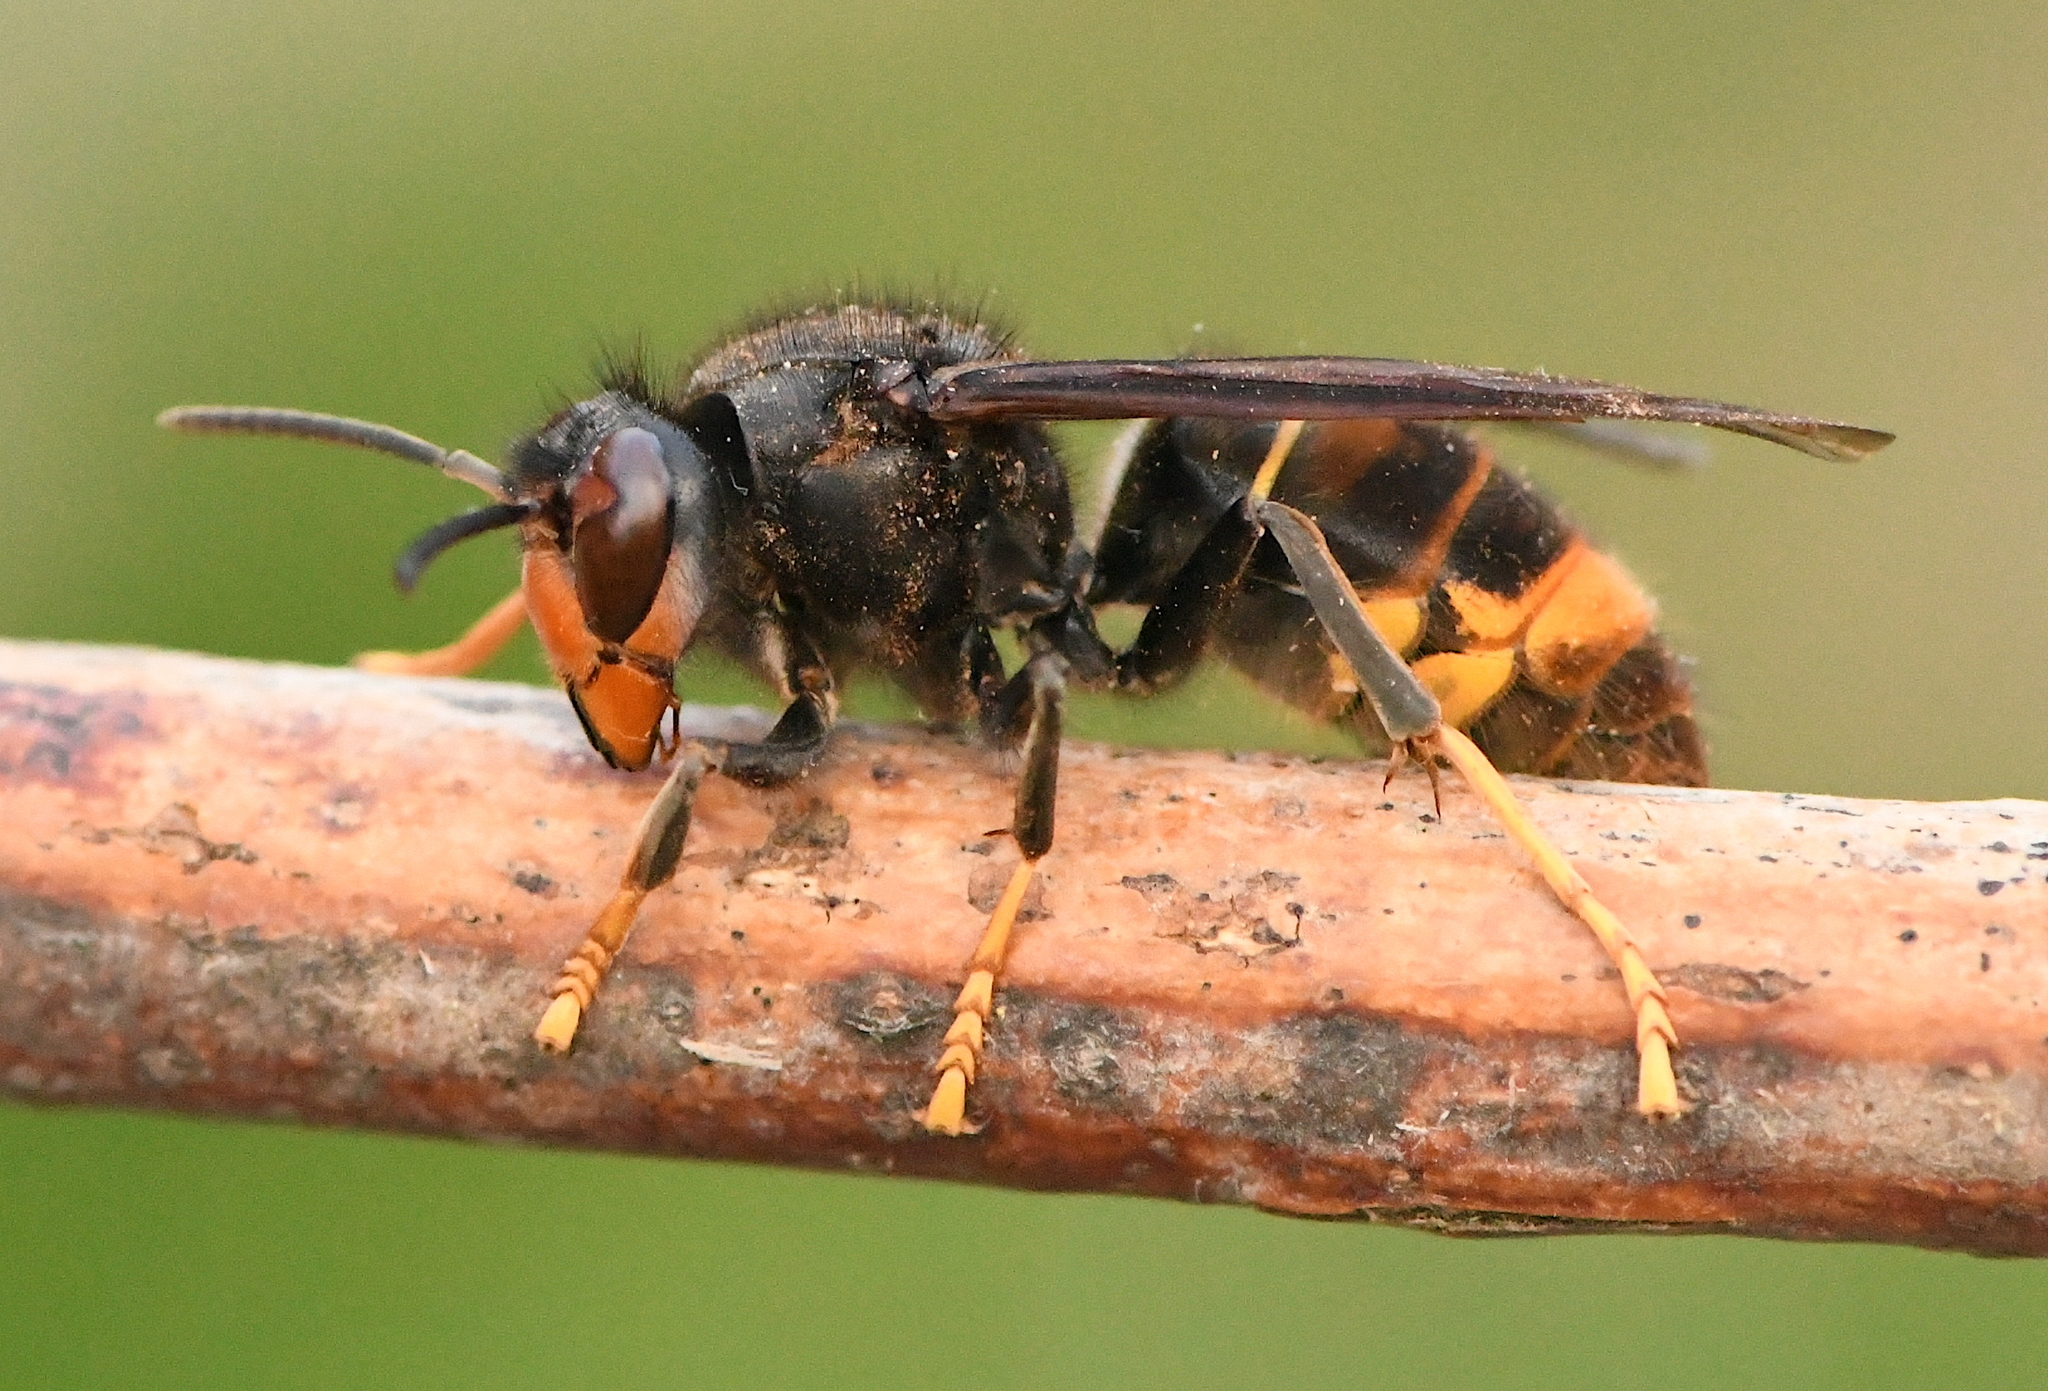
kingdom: Animalia
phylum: Arthropoda
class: Insecta
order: Hymenoptera
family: Vespidae
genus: Vespa
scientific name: Vespa velutina
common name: Asian hornet
